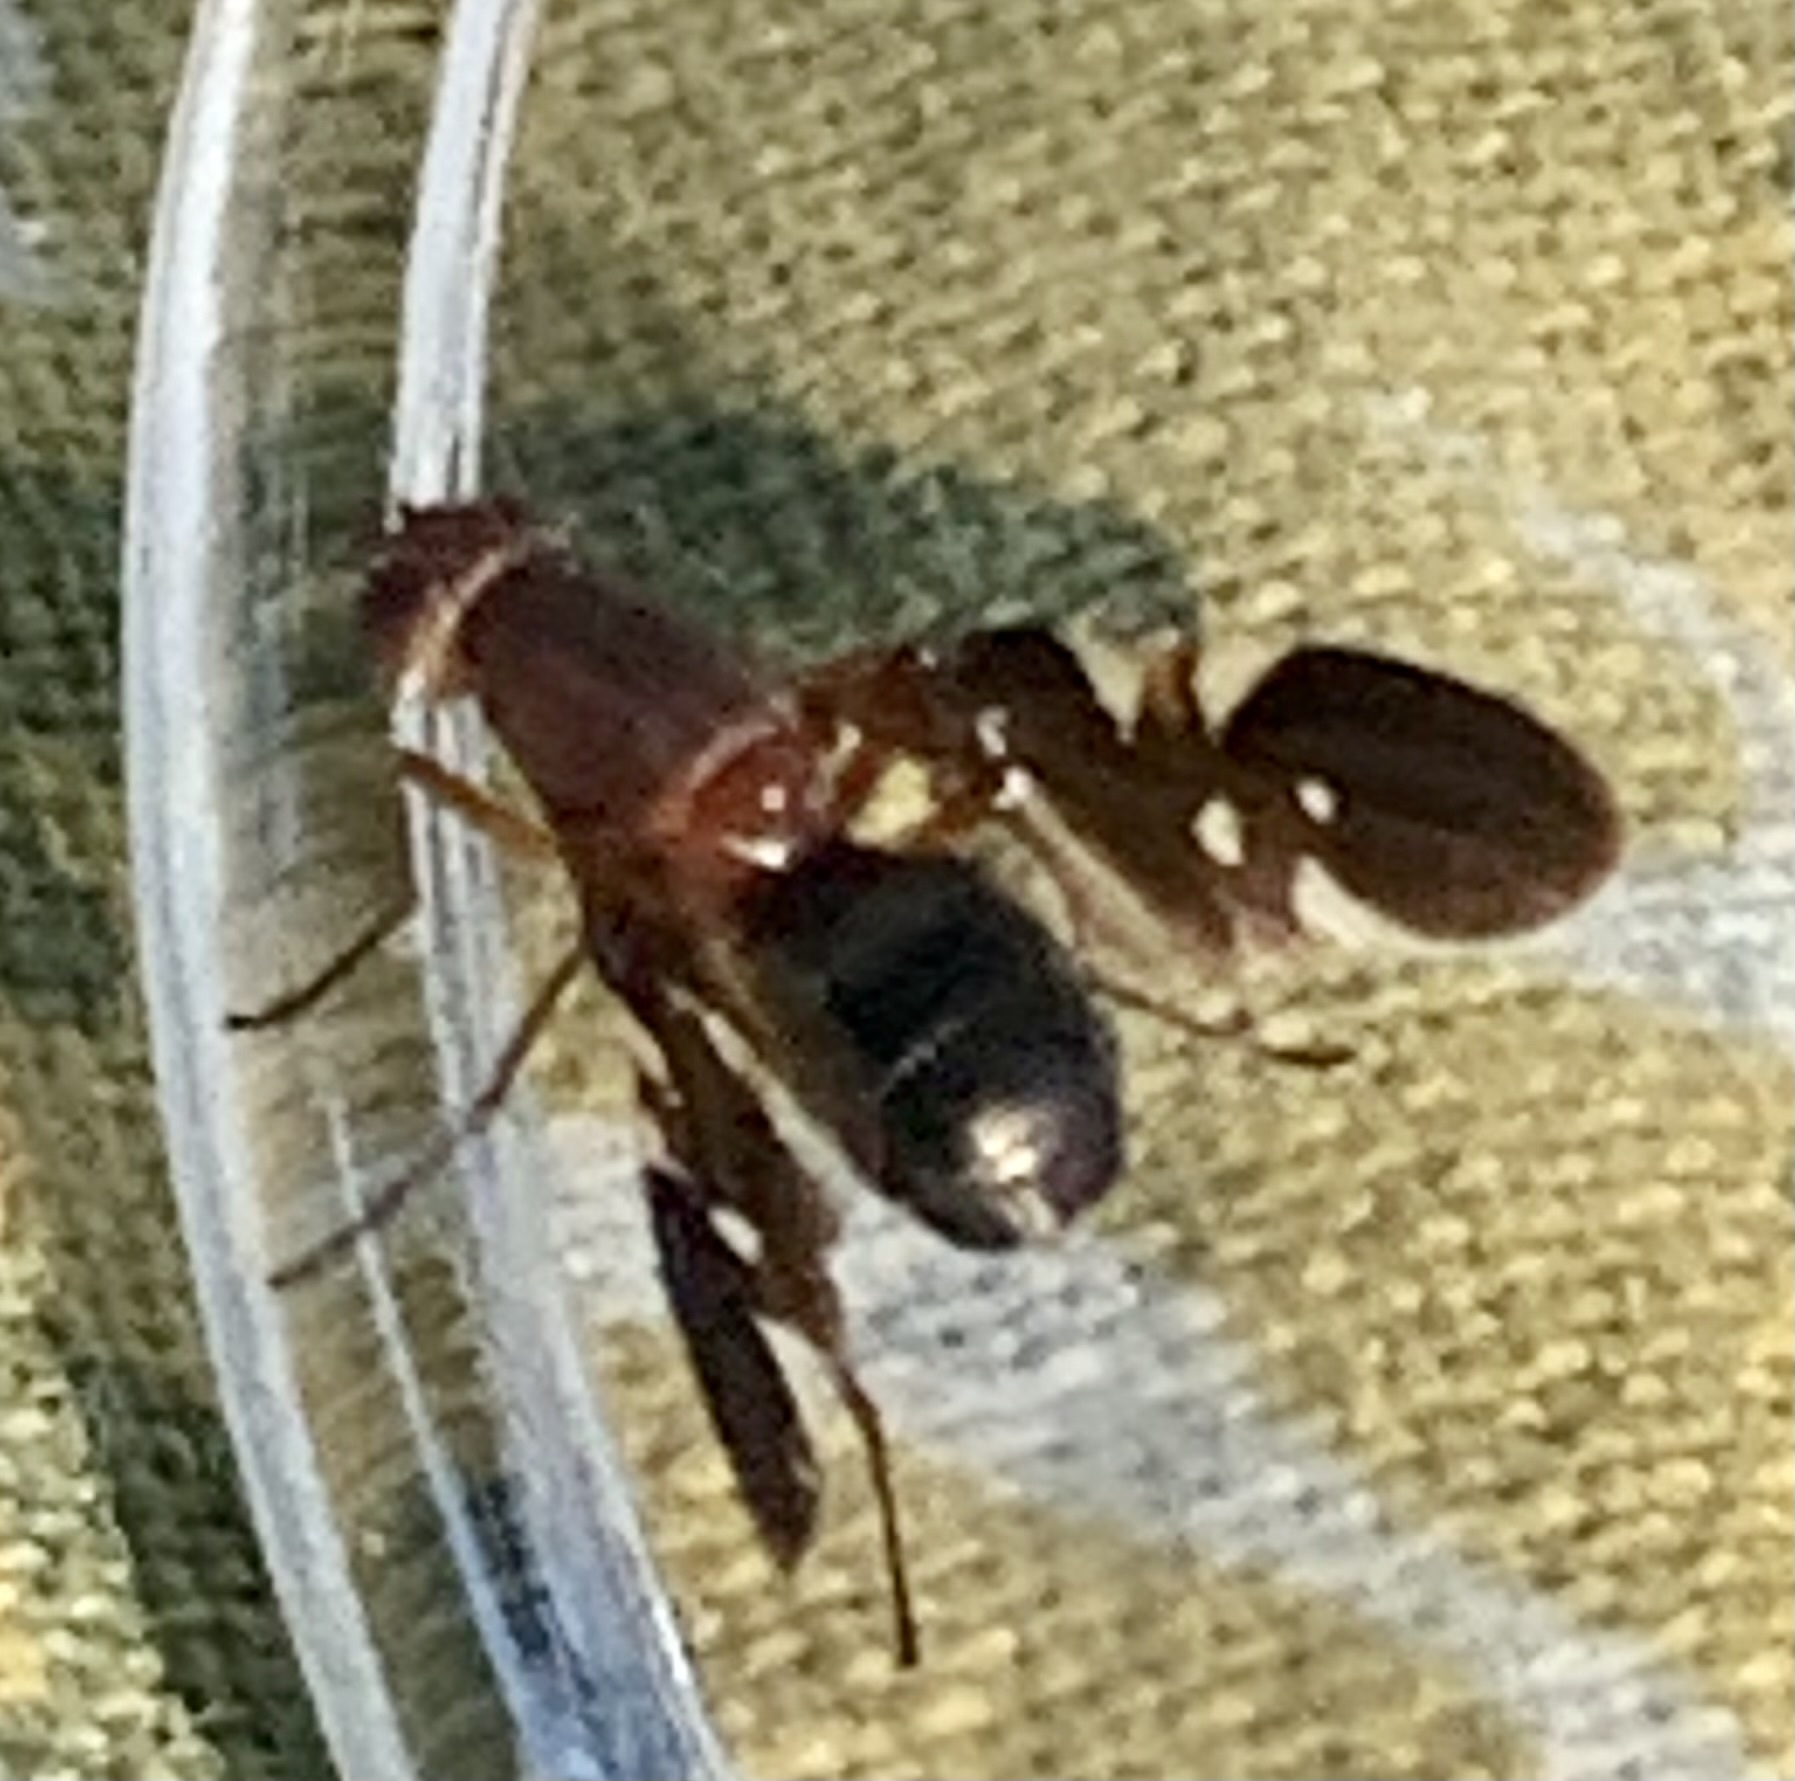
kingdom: Animalia
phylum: Arthropoda
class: Insecta
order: Diptera
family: Ulidiidae
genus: Delphinia
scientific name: Delphinia picta
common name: Common picture-winged fly
